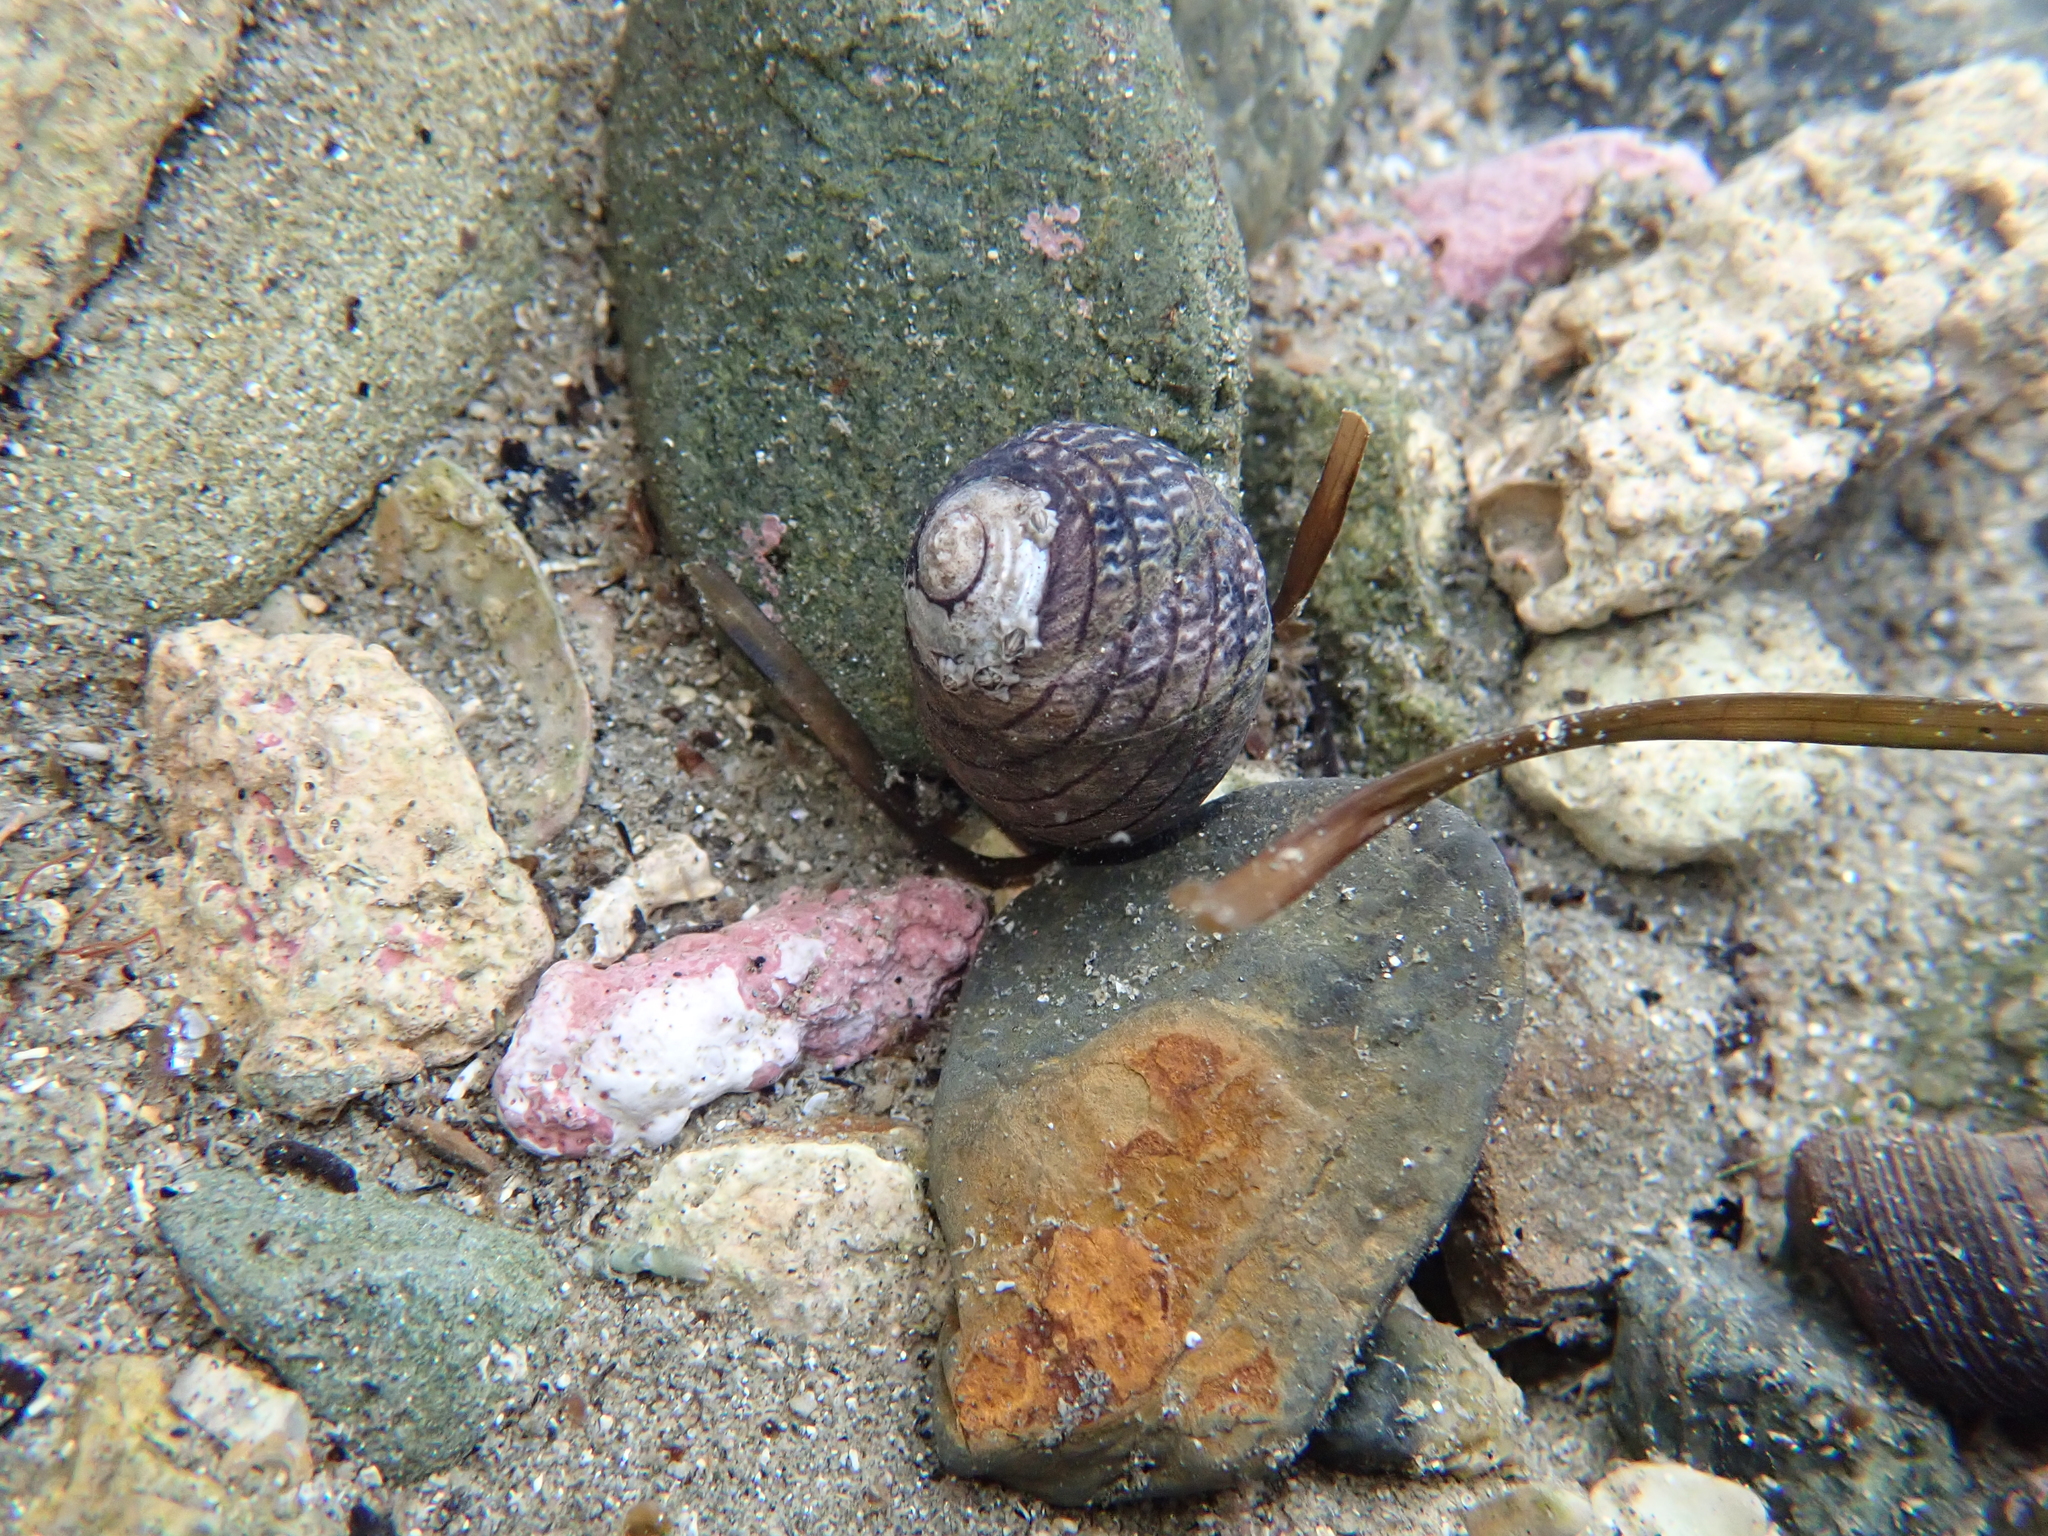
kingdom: Animalia
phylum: Mollusca
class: Gastropoda
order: Trochida
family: Trochidae
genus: Diloma
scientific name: Diloma aethiops
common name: Scorched monodont
